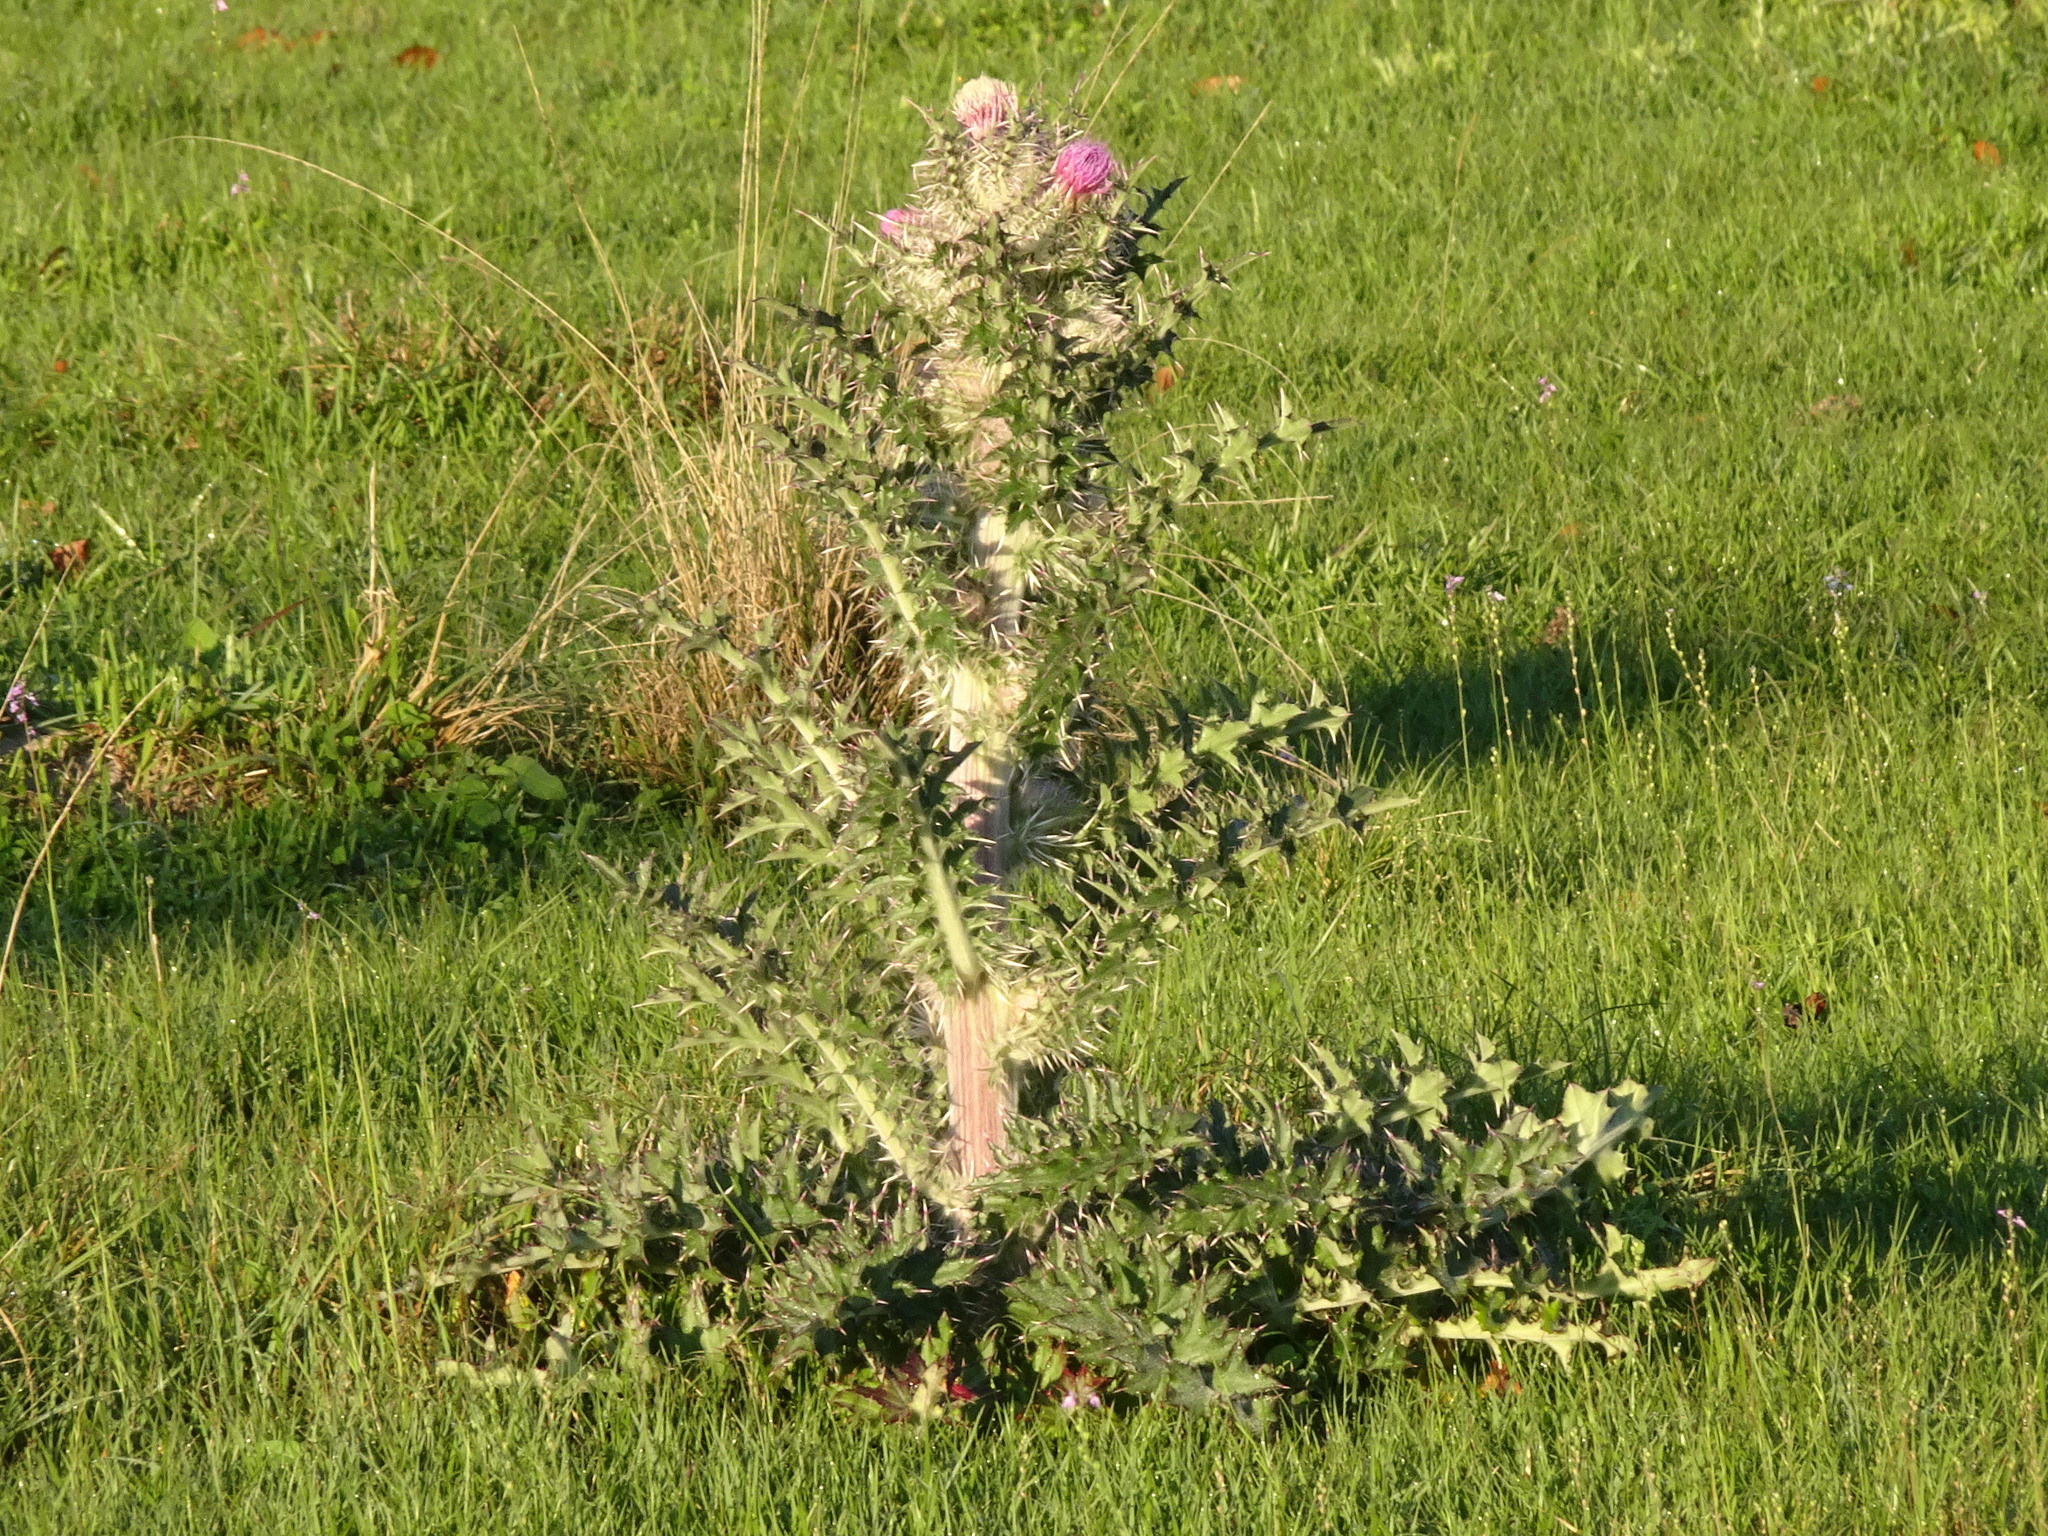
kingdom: Plantae
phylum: Tracheophyta
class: Magnoliopsida
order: Asterales
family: Asteraceae
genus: Cirsium
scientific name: Cirsium horridulum
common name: Bristly thistle
